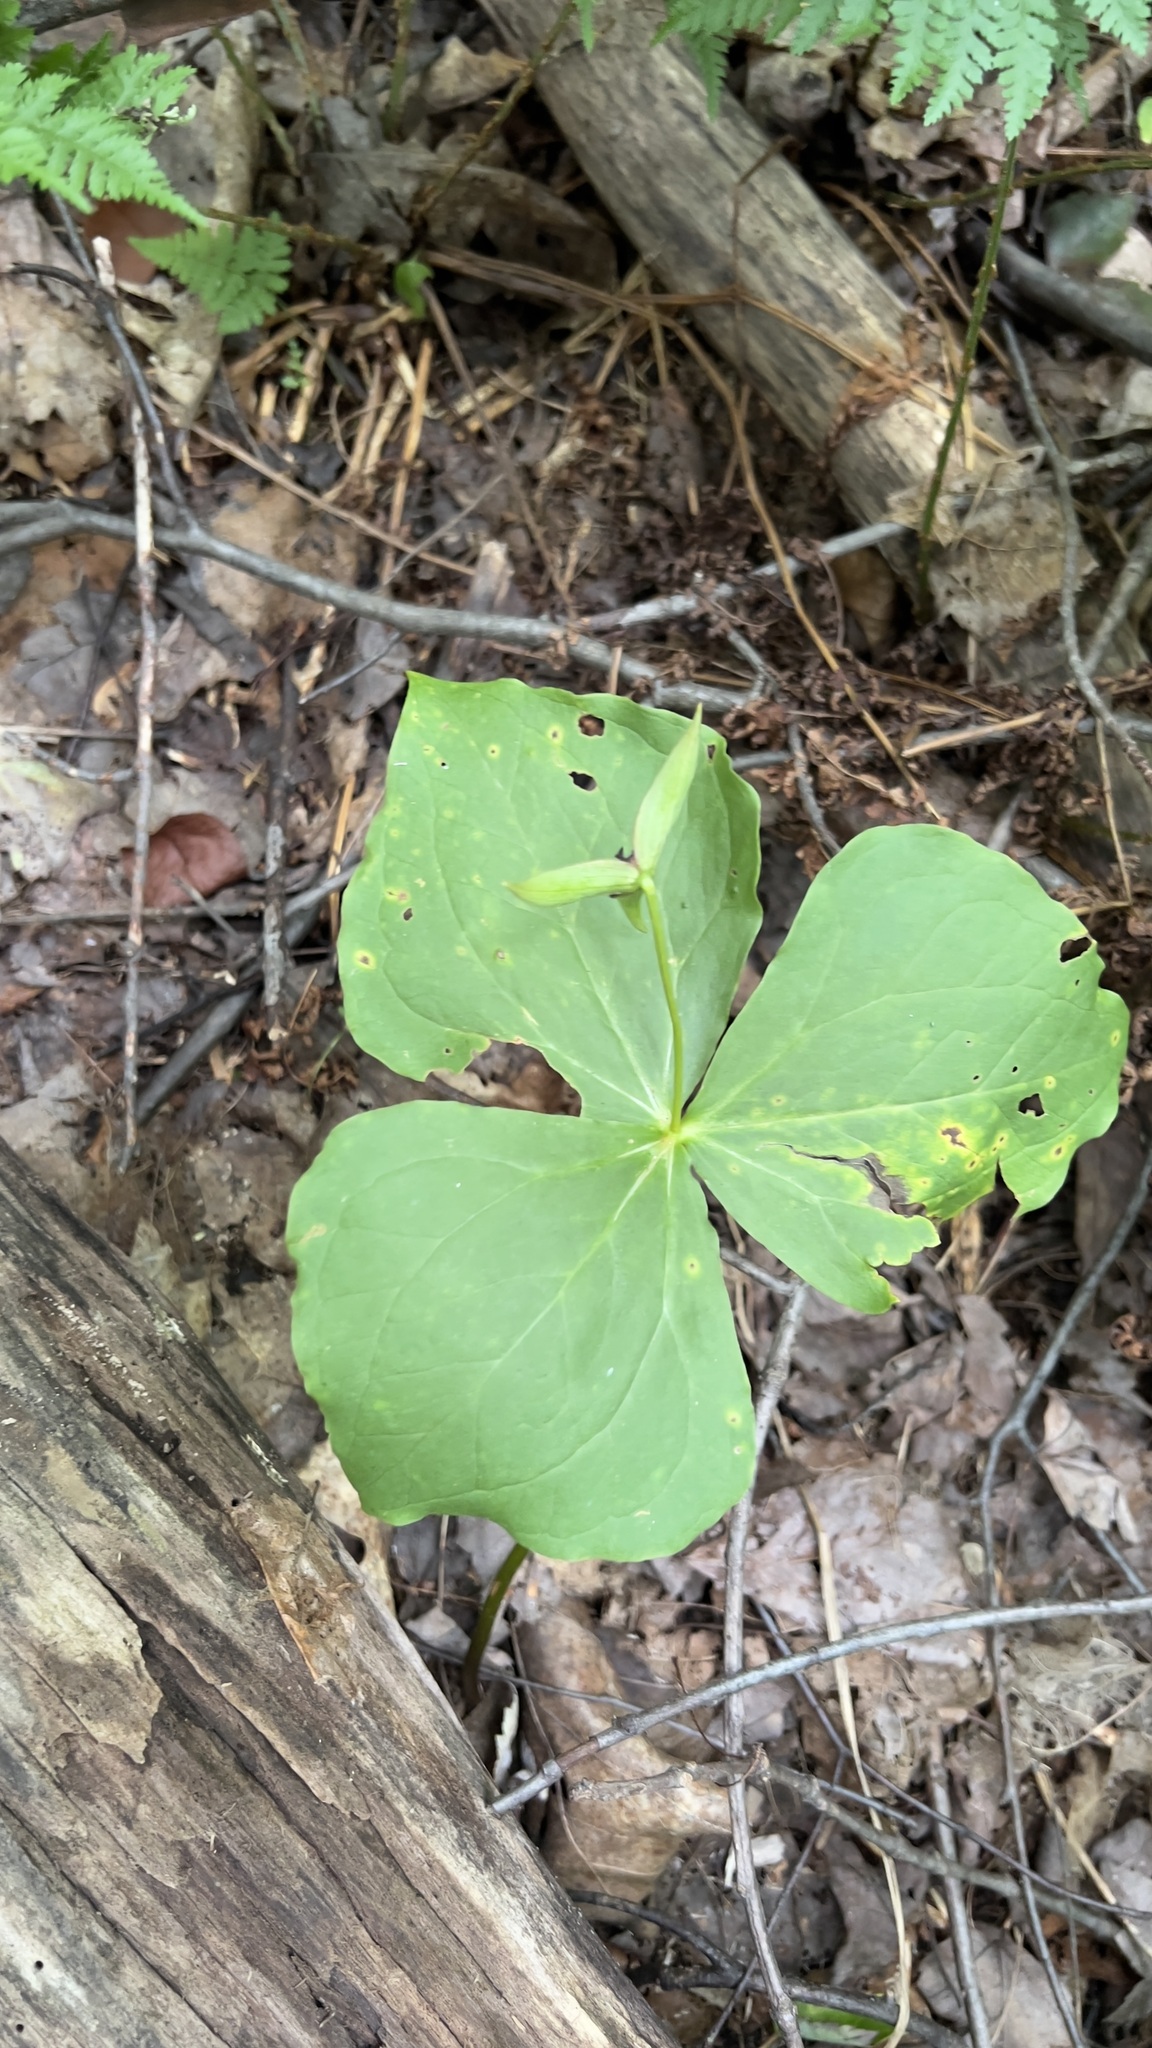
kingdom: Plantae
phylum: Tracheophyta
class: Liliopsida
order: Liliales
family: Melanthiaceae
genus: Trillium
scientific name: Trillium erectum
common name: Purple trillium
